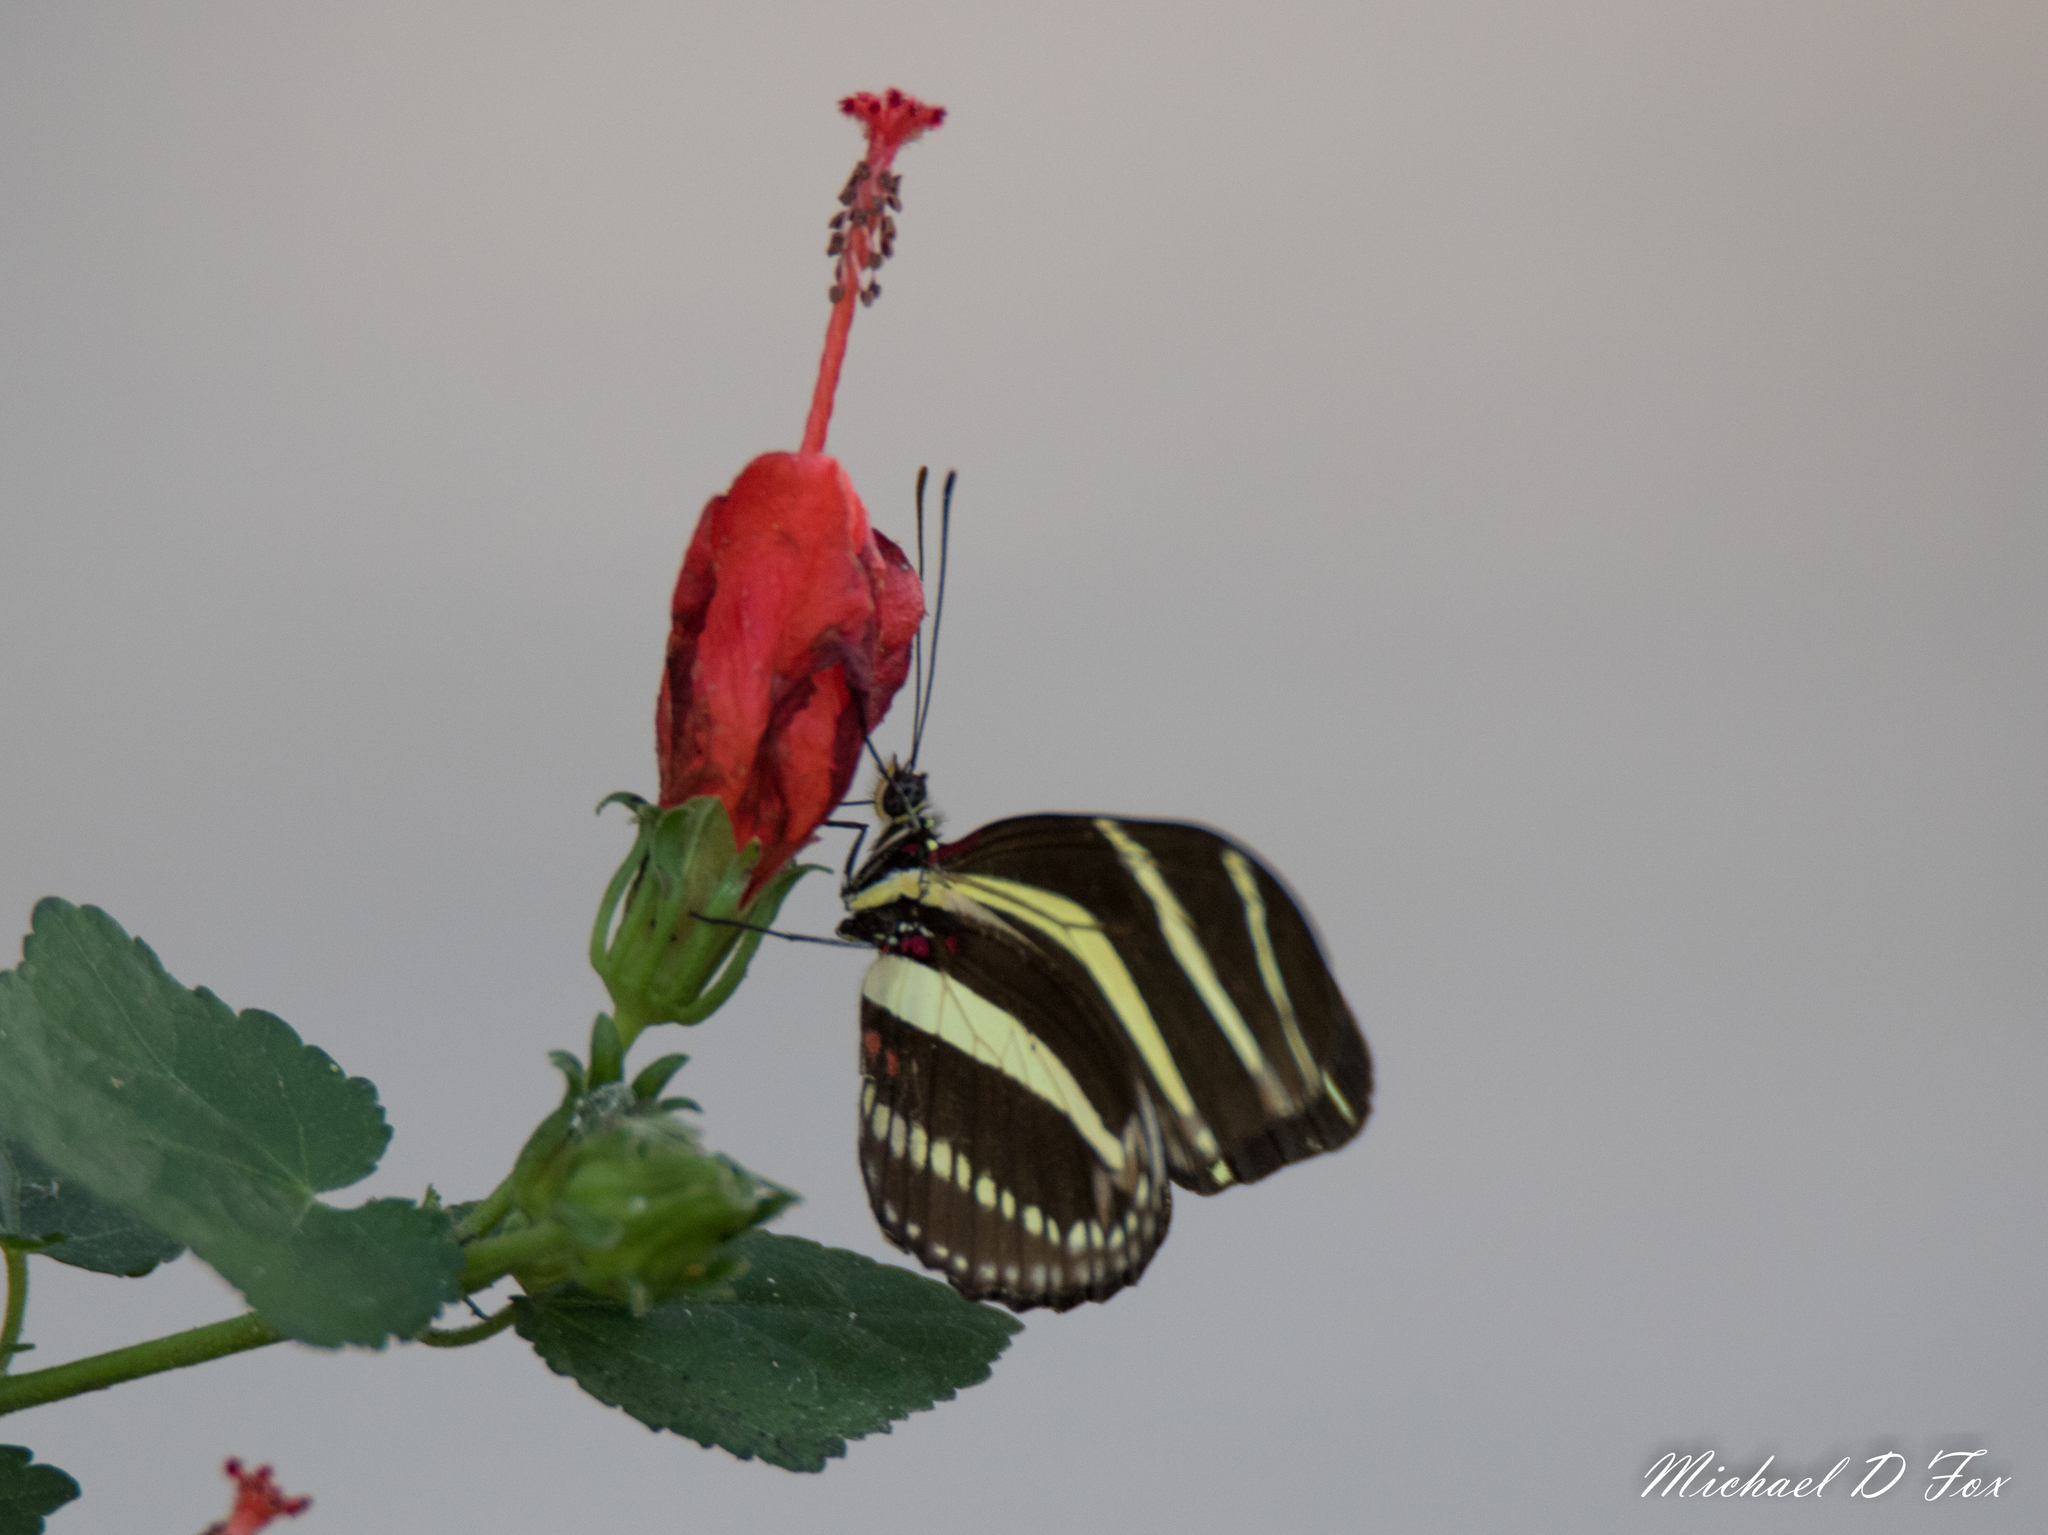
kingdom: Animalia
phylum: Arthropoda
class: Insecta
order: Lepidoptera
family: Nymphalidae
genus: Heliconius
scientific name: Heliconius charithonia
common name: Zebra long wing
